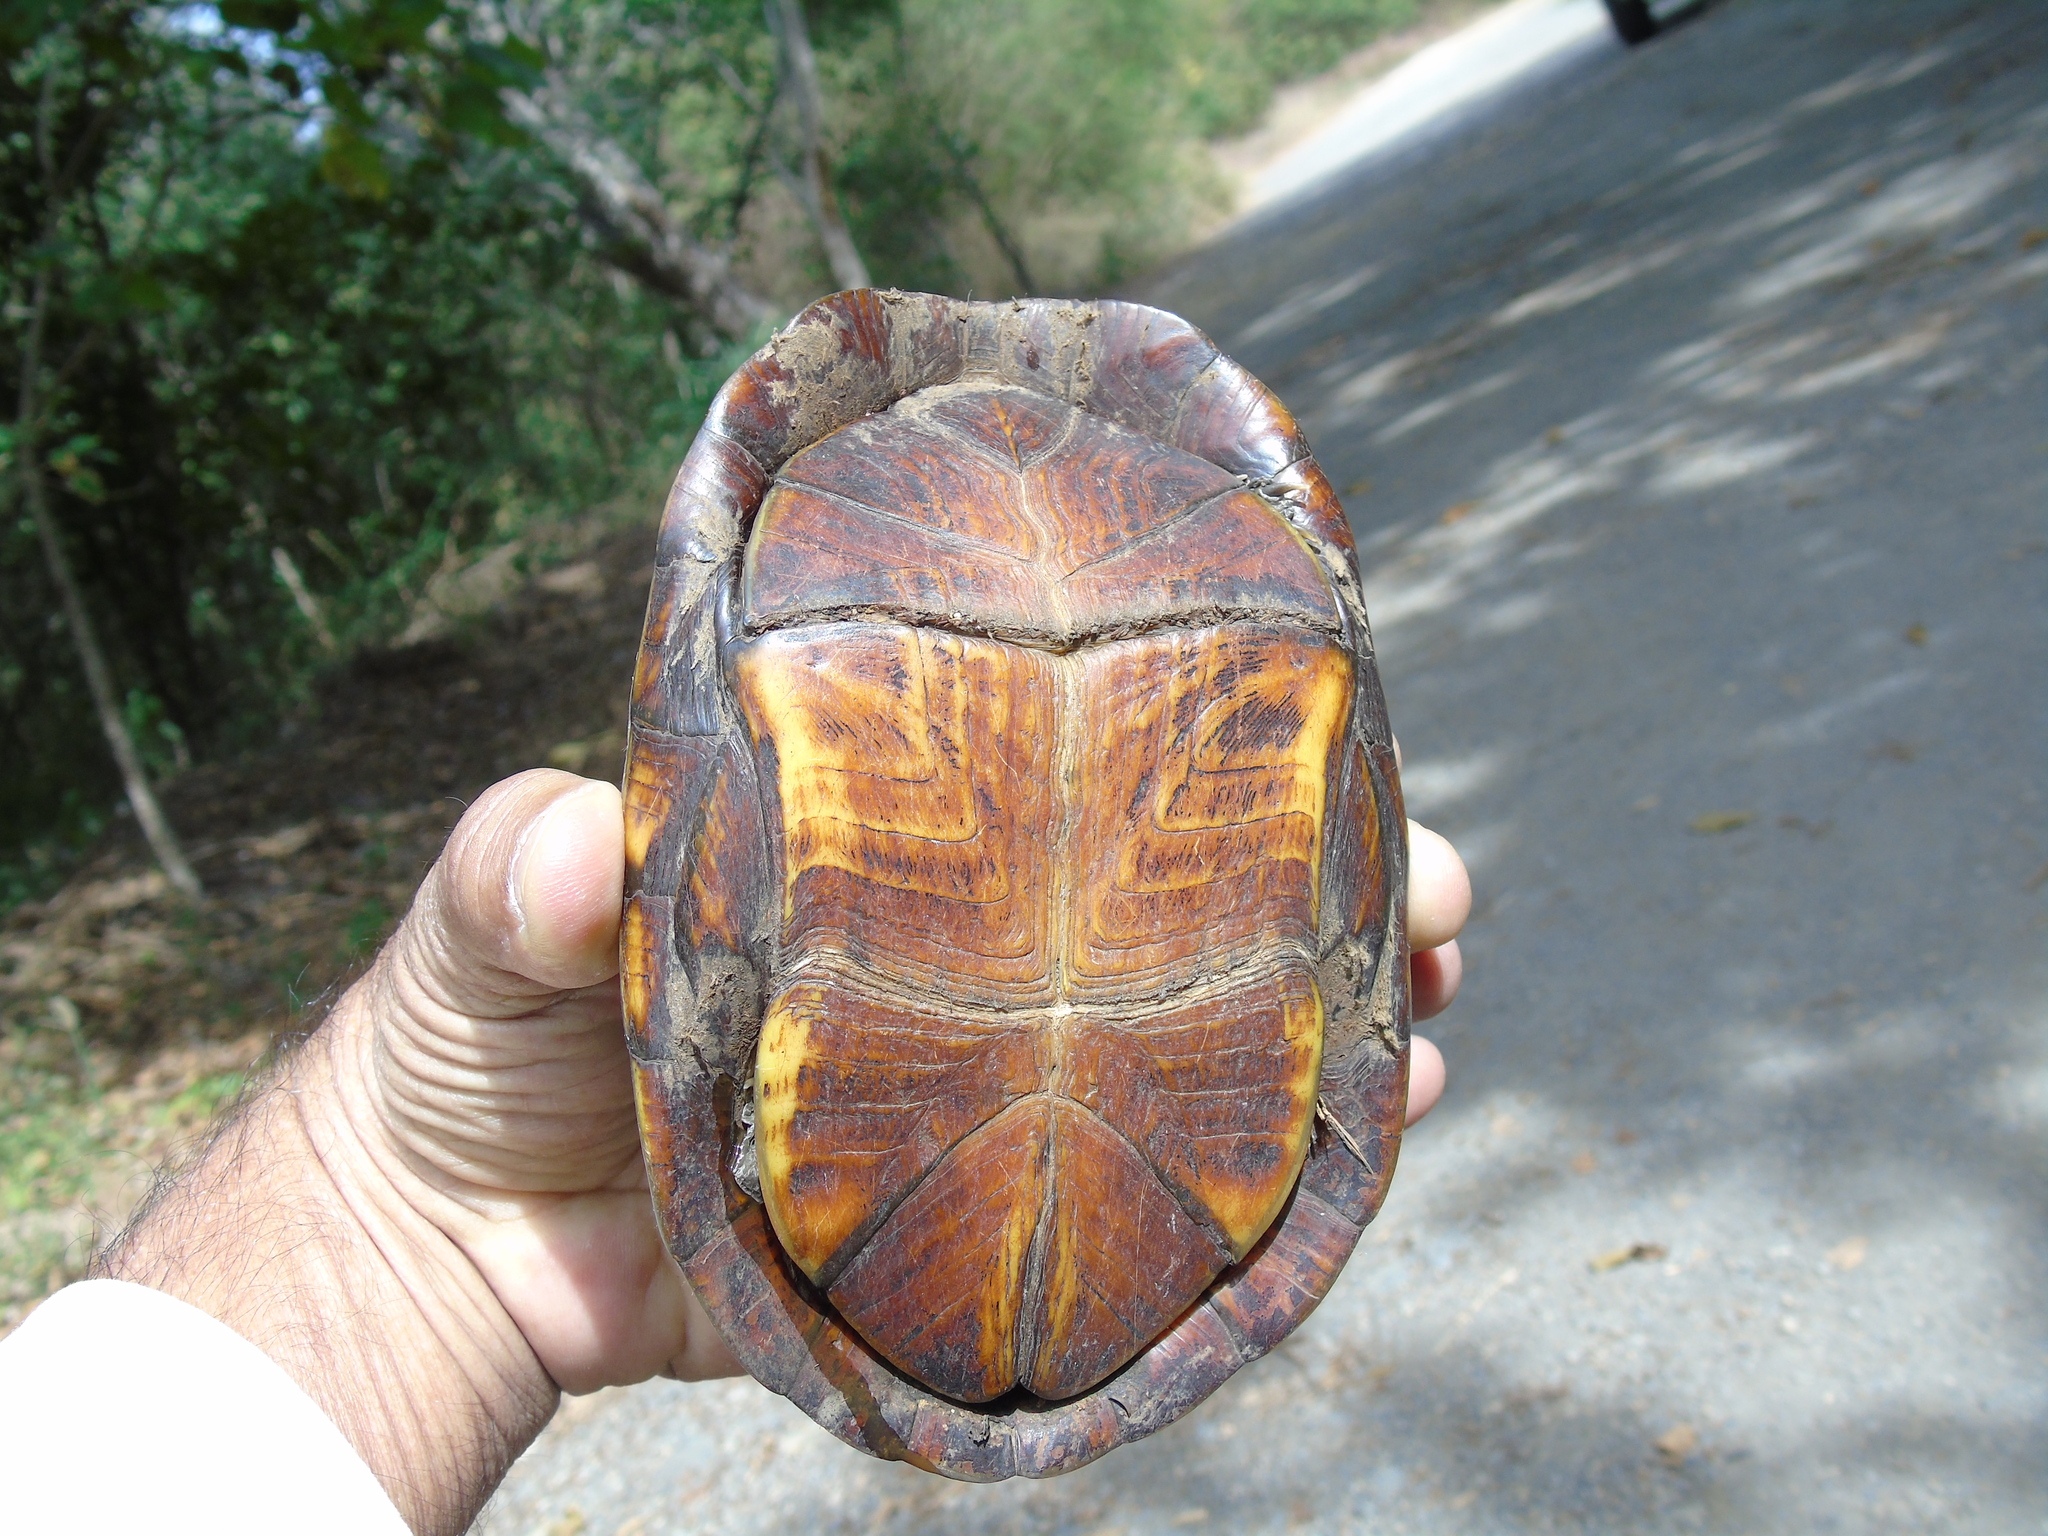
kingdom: Animalia
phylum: Chordata
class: Testudines
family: Kinosternidae
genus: Kinosternon
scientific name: Kinosternon integrum
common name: Mexican mud turtle
